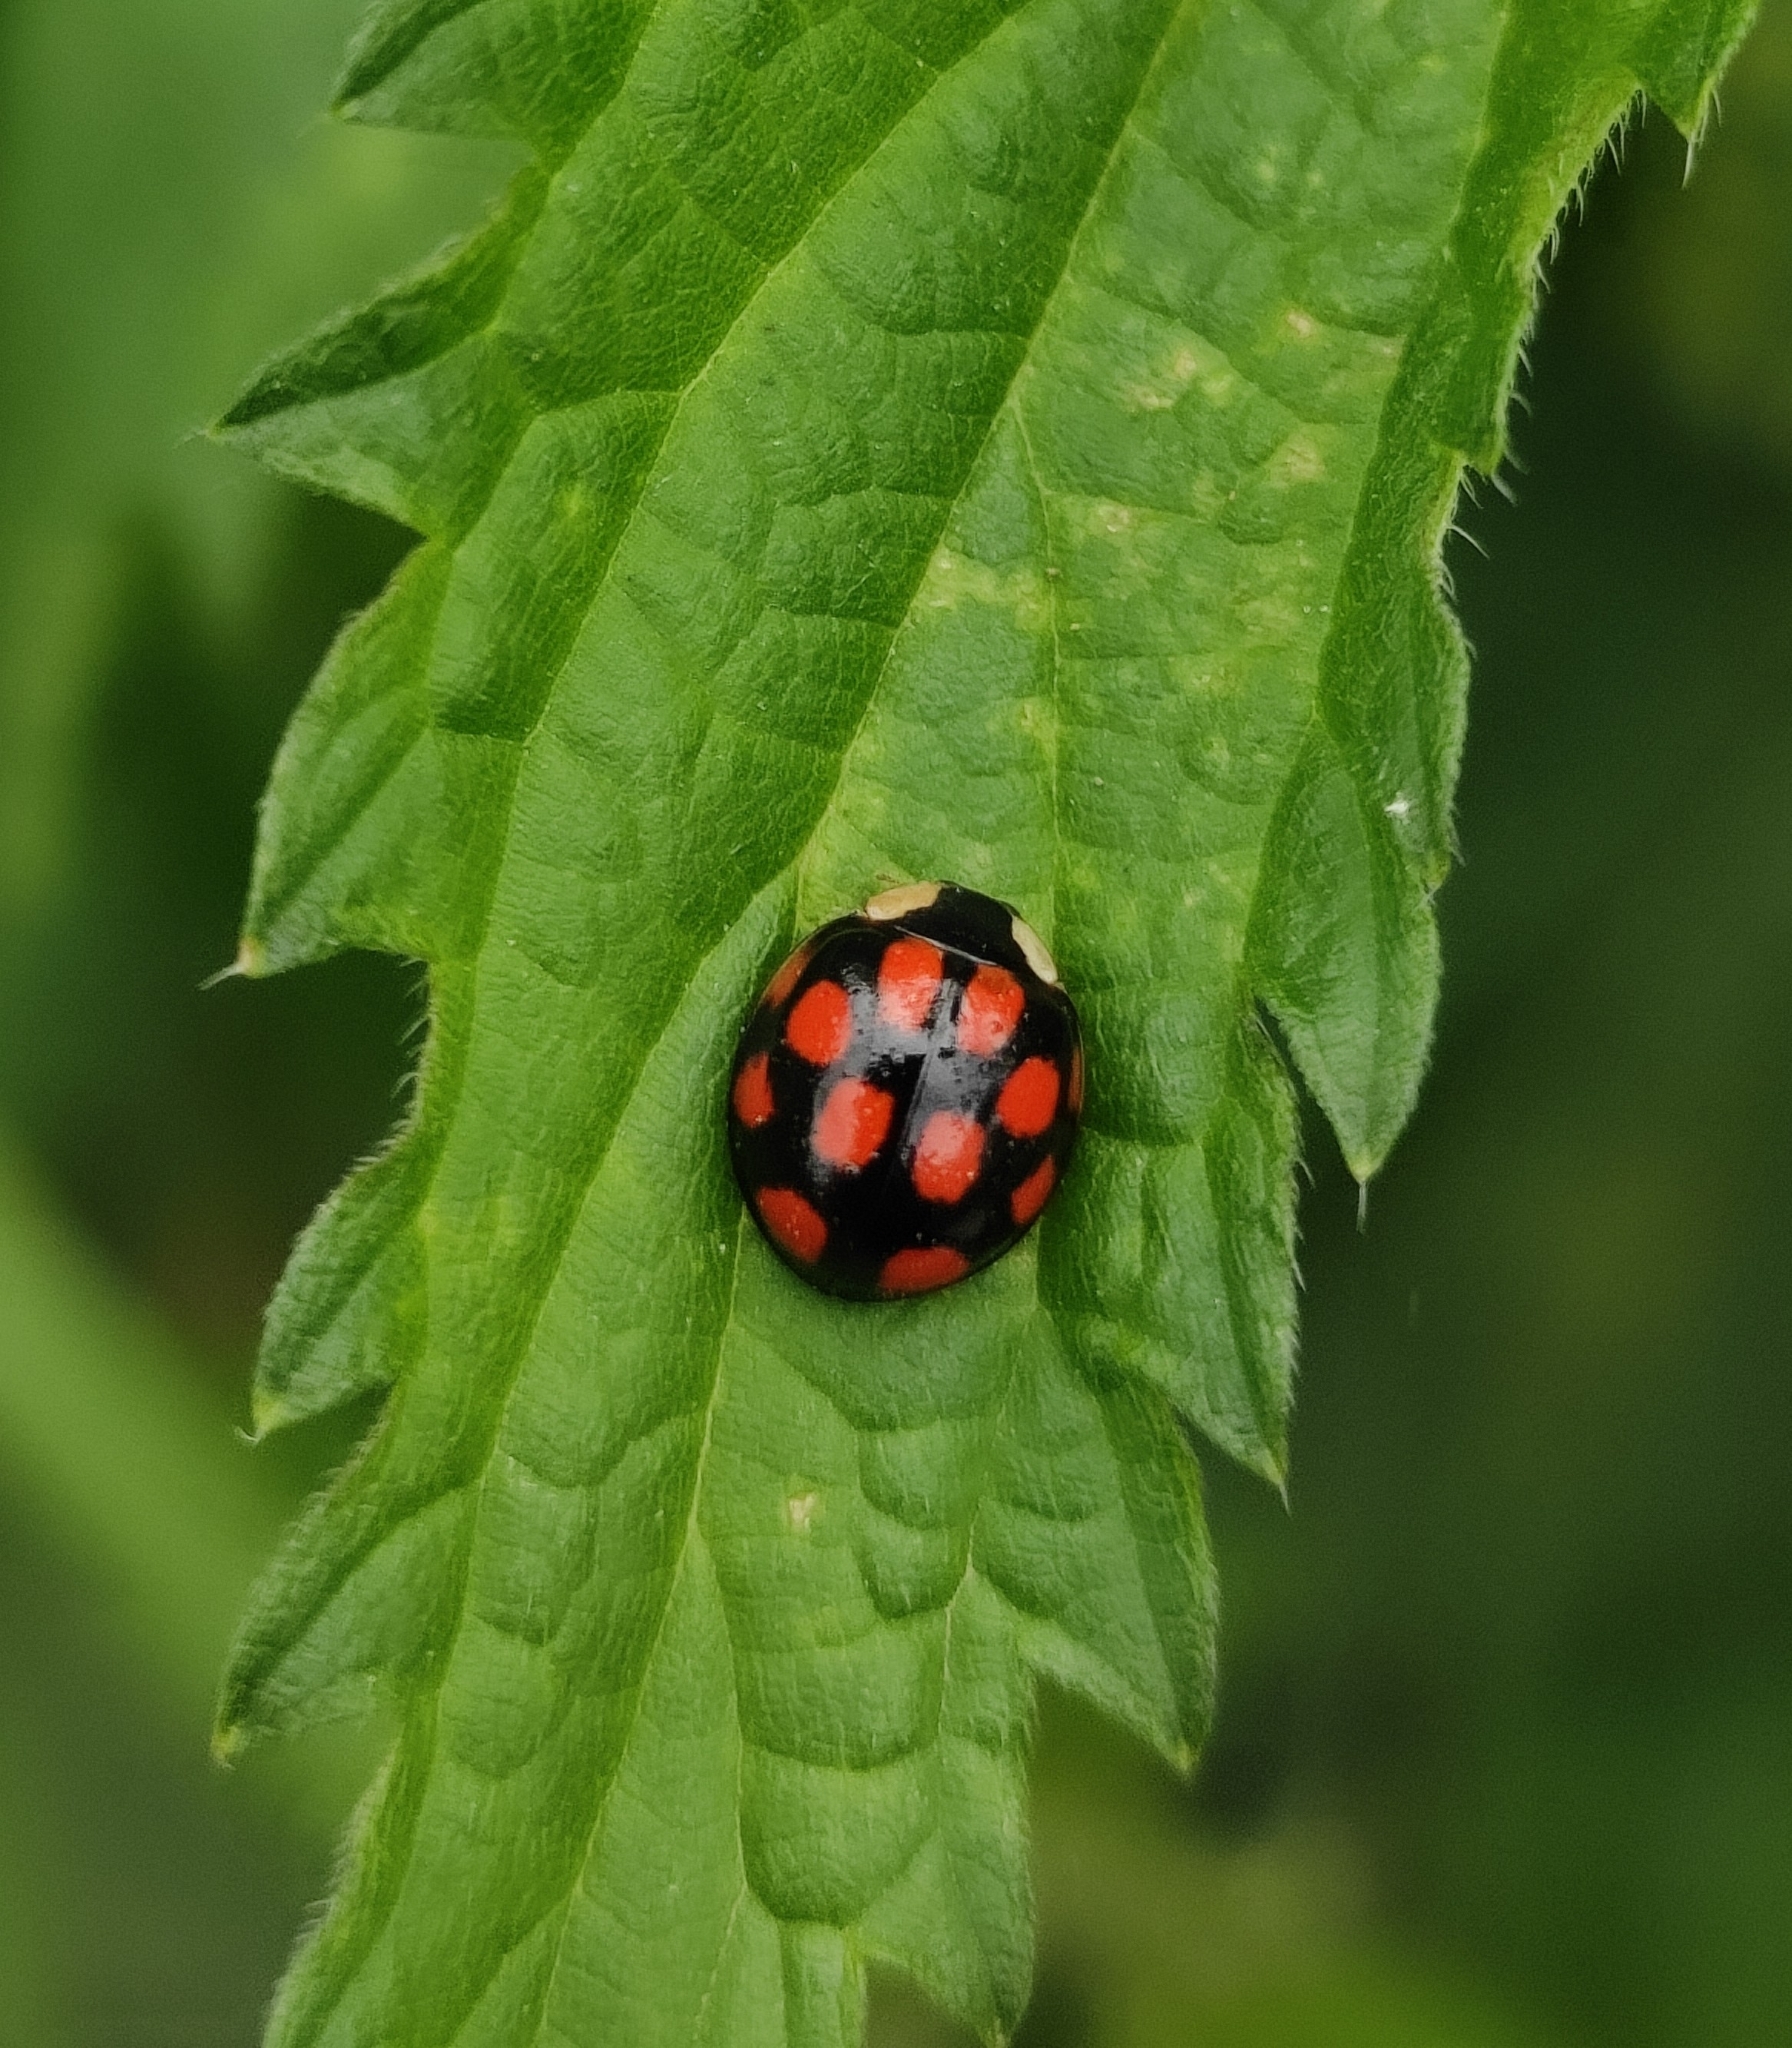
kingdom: Animalia
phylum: Arthropoda
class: Insecta
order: Coleoptera
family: Coccinellidae
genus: Harmonia
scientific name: Harmonia axyridis
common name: Harlequin ladybird
